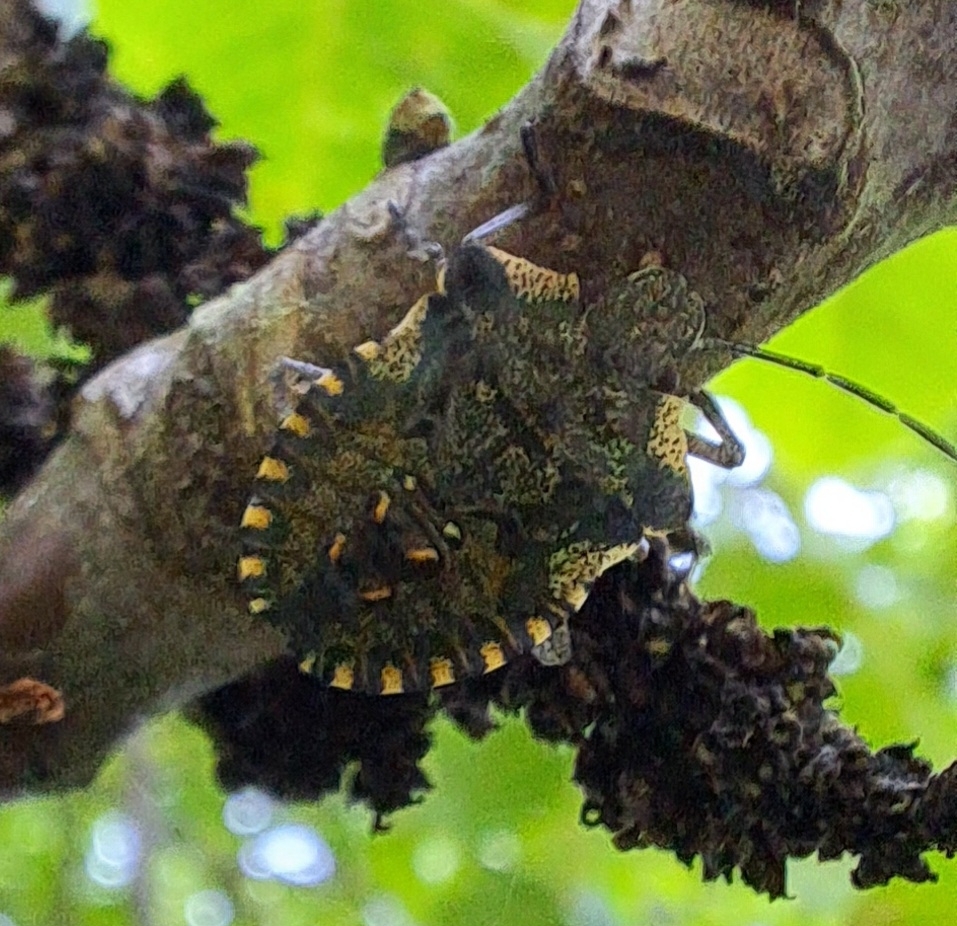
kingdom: Animalia
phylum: Arthropoda
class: Insecta
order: Hemiptera
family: Pentatomidae
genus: Pentatoma
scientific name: Pentatoma rufipes
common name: Forest bug
